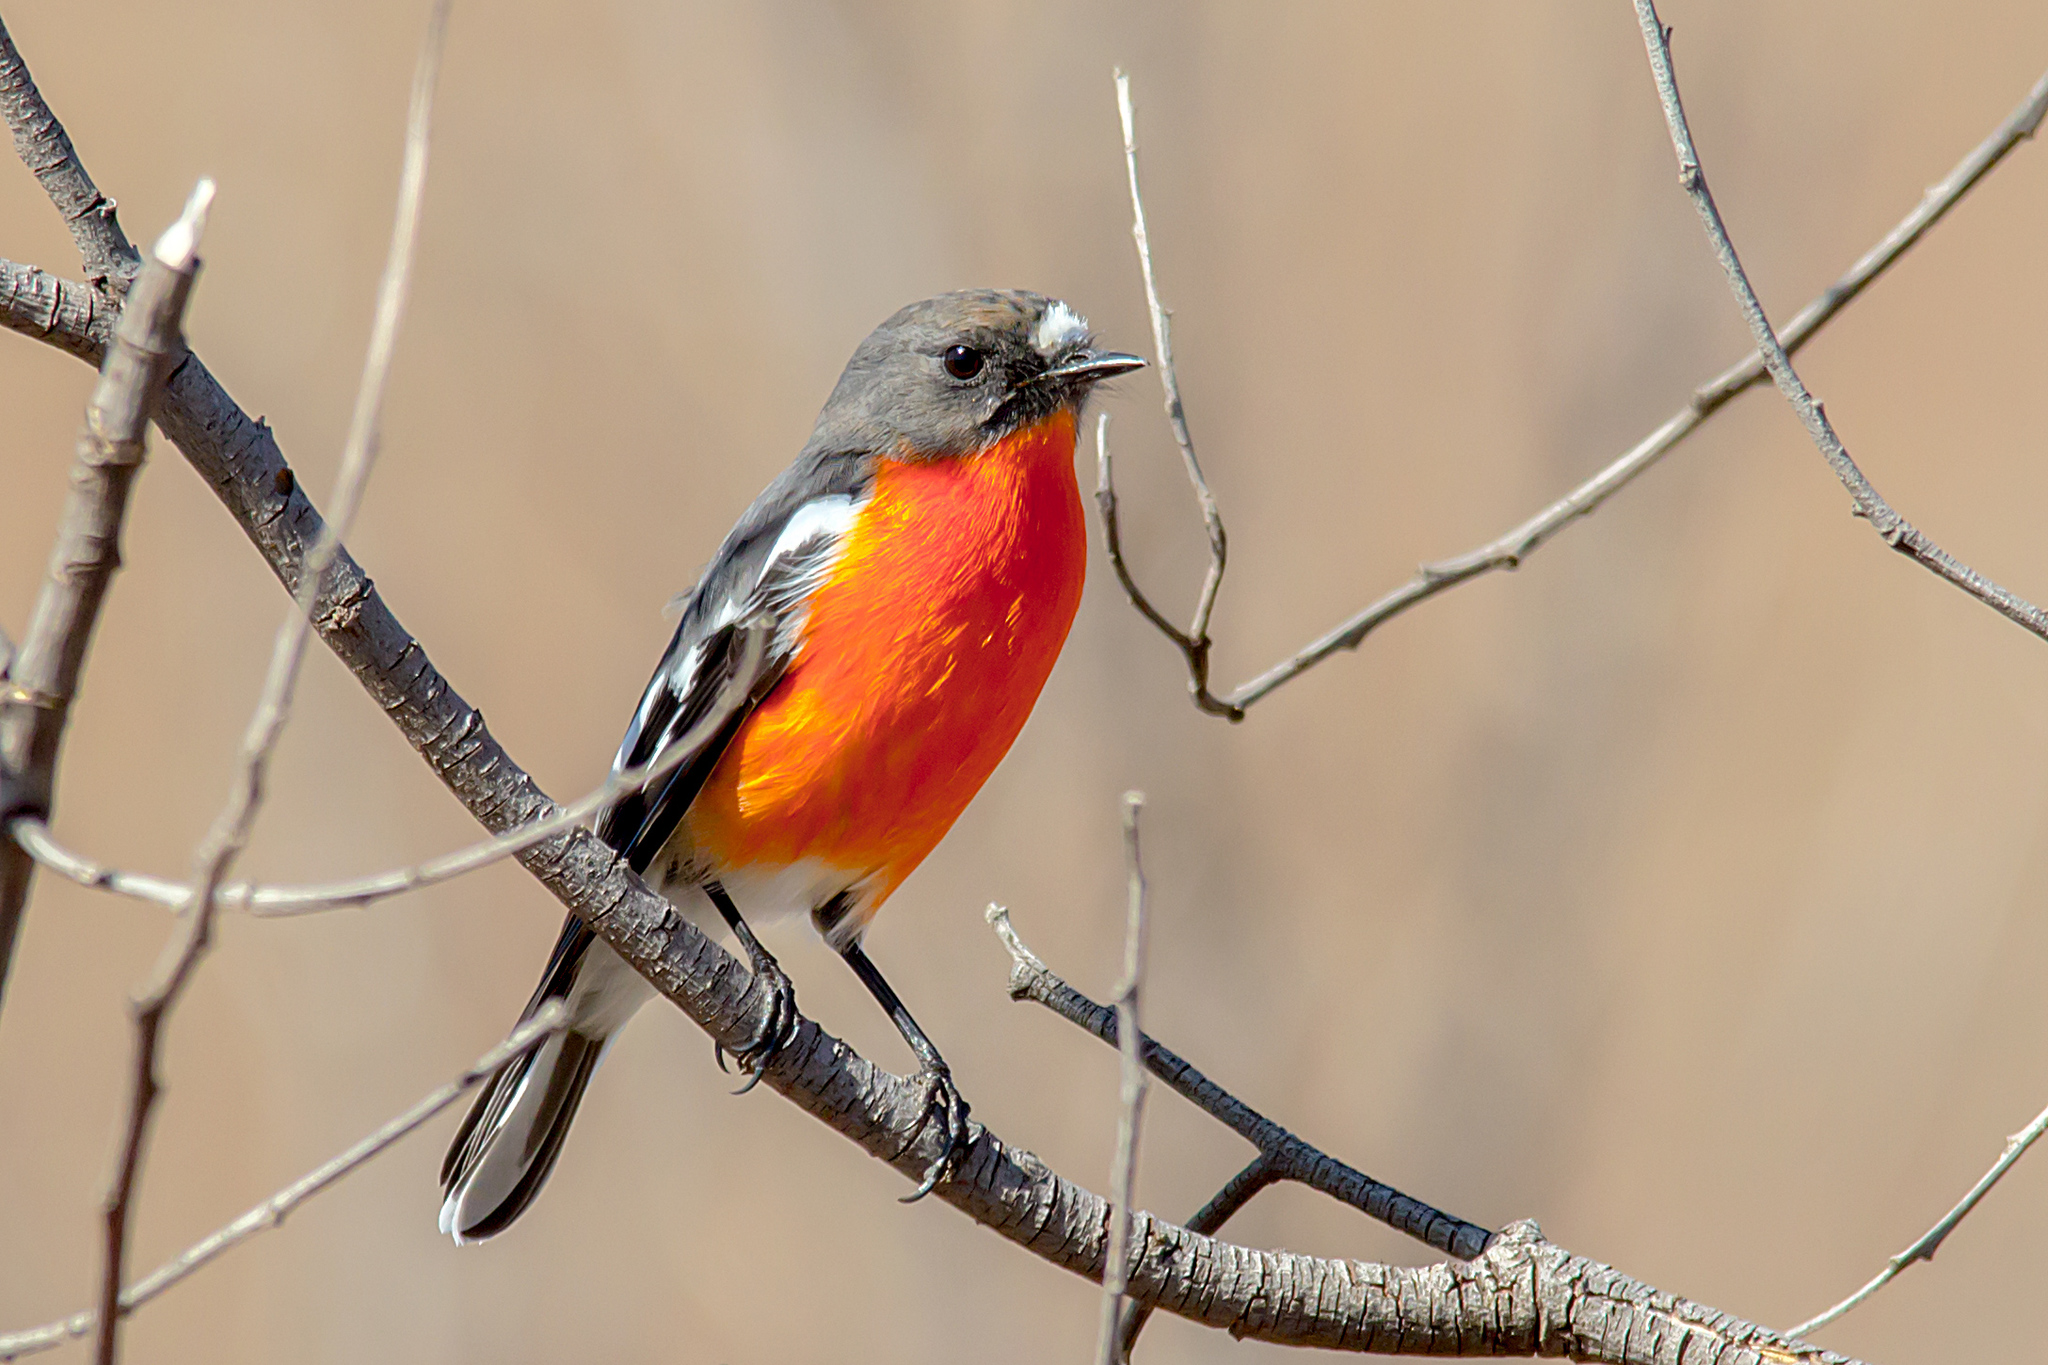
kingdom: Animalia
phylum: Chordata
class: Aves
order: Passeriformes
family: Petroicidae
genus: Petroica
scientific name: Petroica phoenicea
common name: Flame robin
